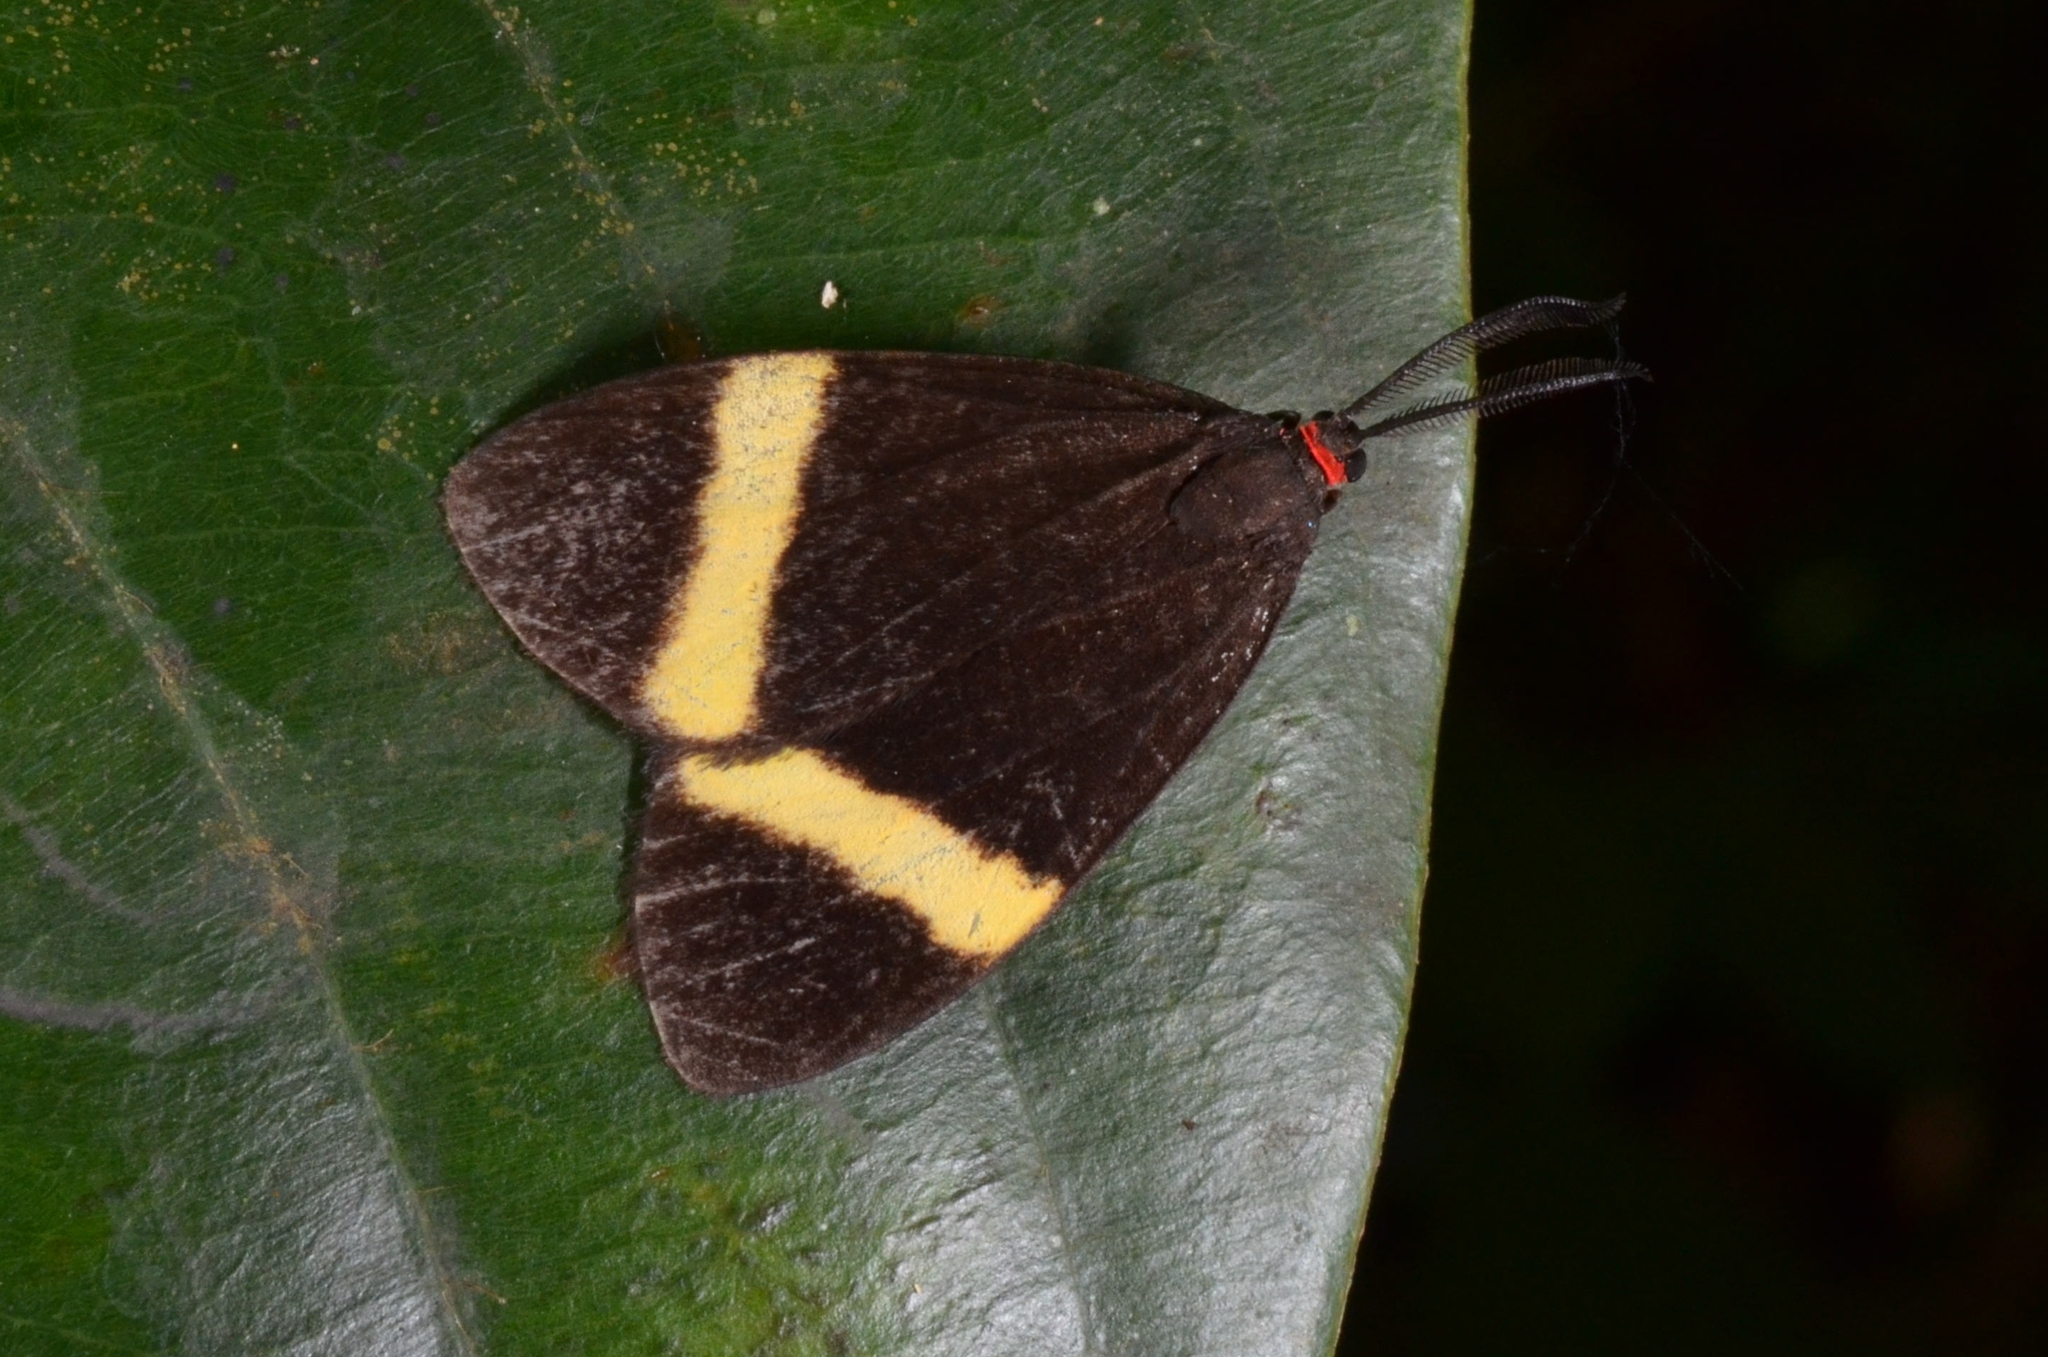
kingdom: Animalia
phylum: Arthropoda
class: Insecta
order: Lepidoptera
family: Zygaenidae
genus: Pidorus
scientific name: Pidorus gemina
